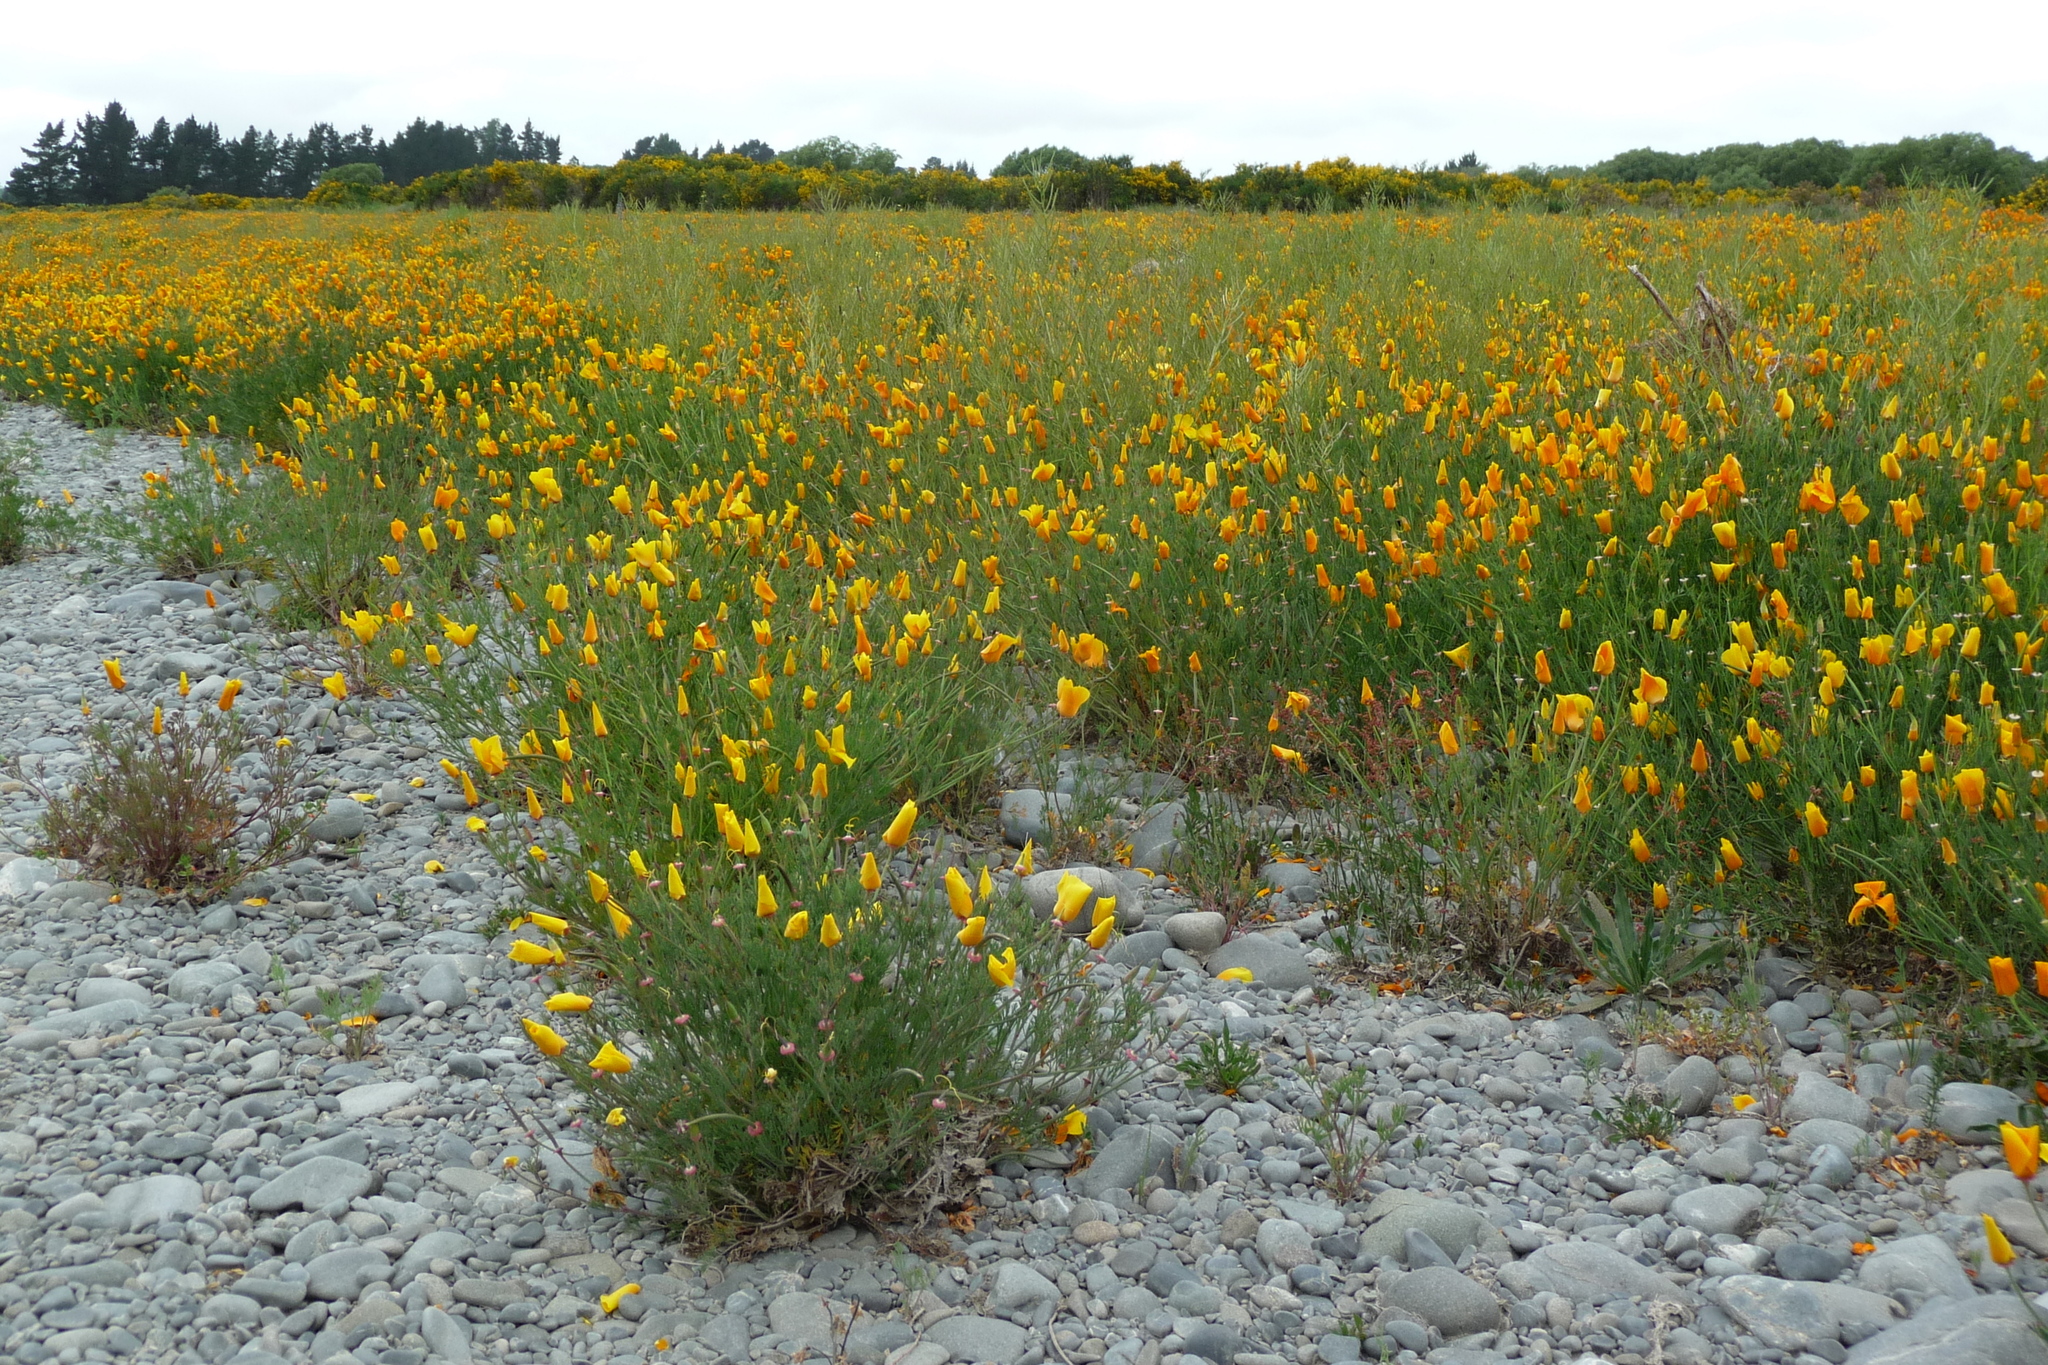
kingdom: Plantae
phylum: Tracheophyta
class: Magnoliopsida
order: Ranunculales
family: Papaveraceae
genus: Eschscholzia
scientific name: Eschscholzia californica
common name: California poppy
